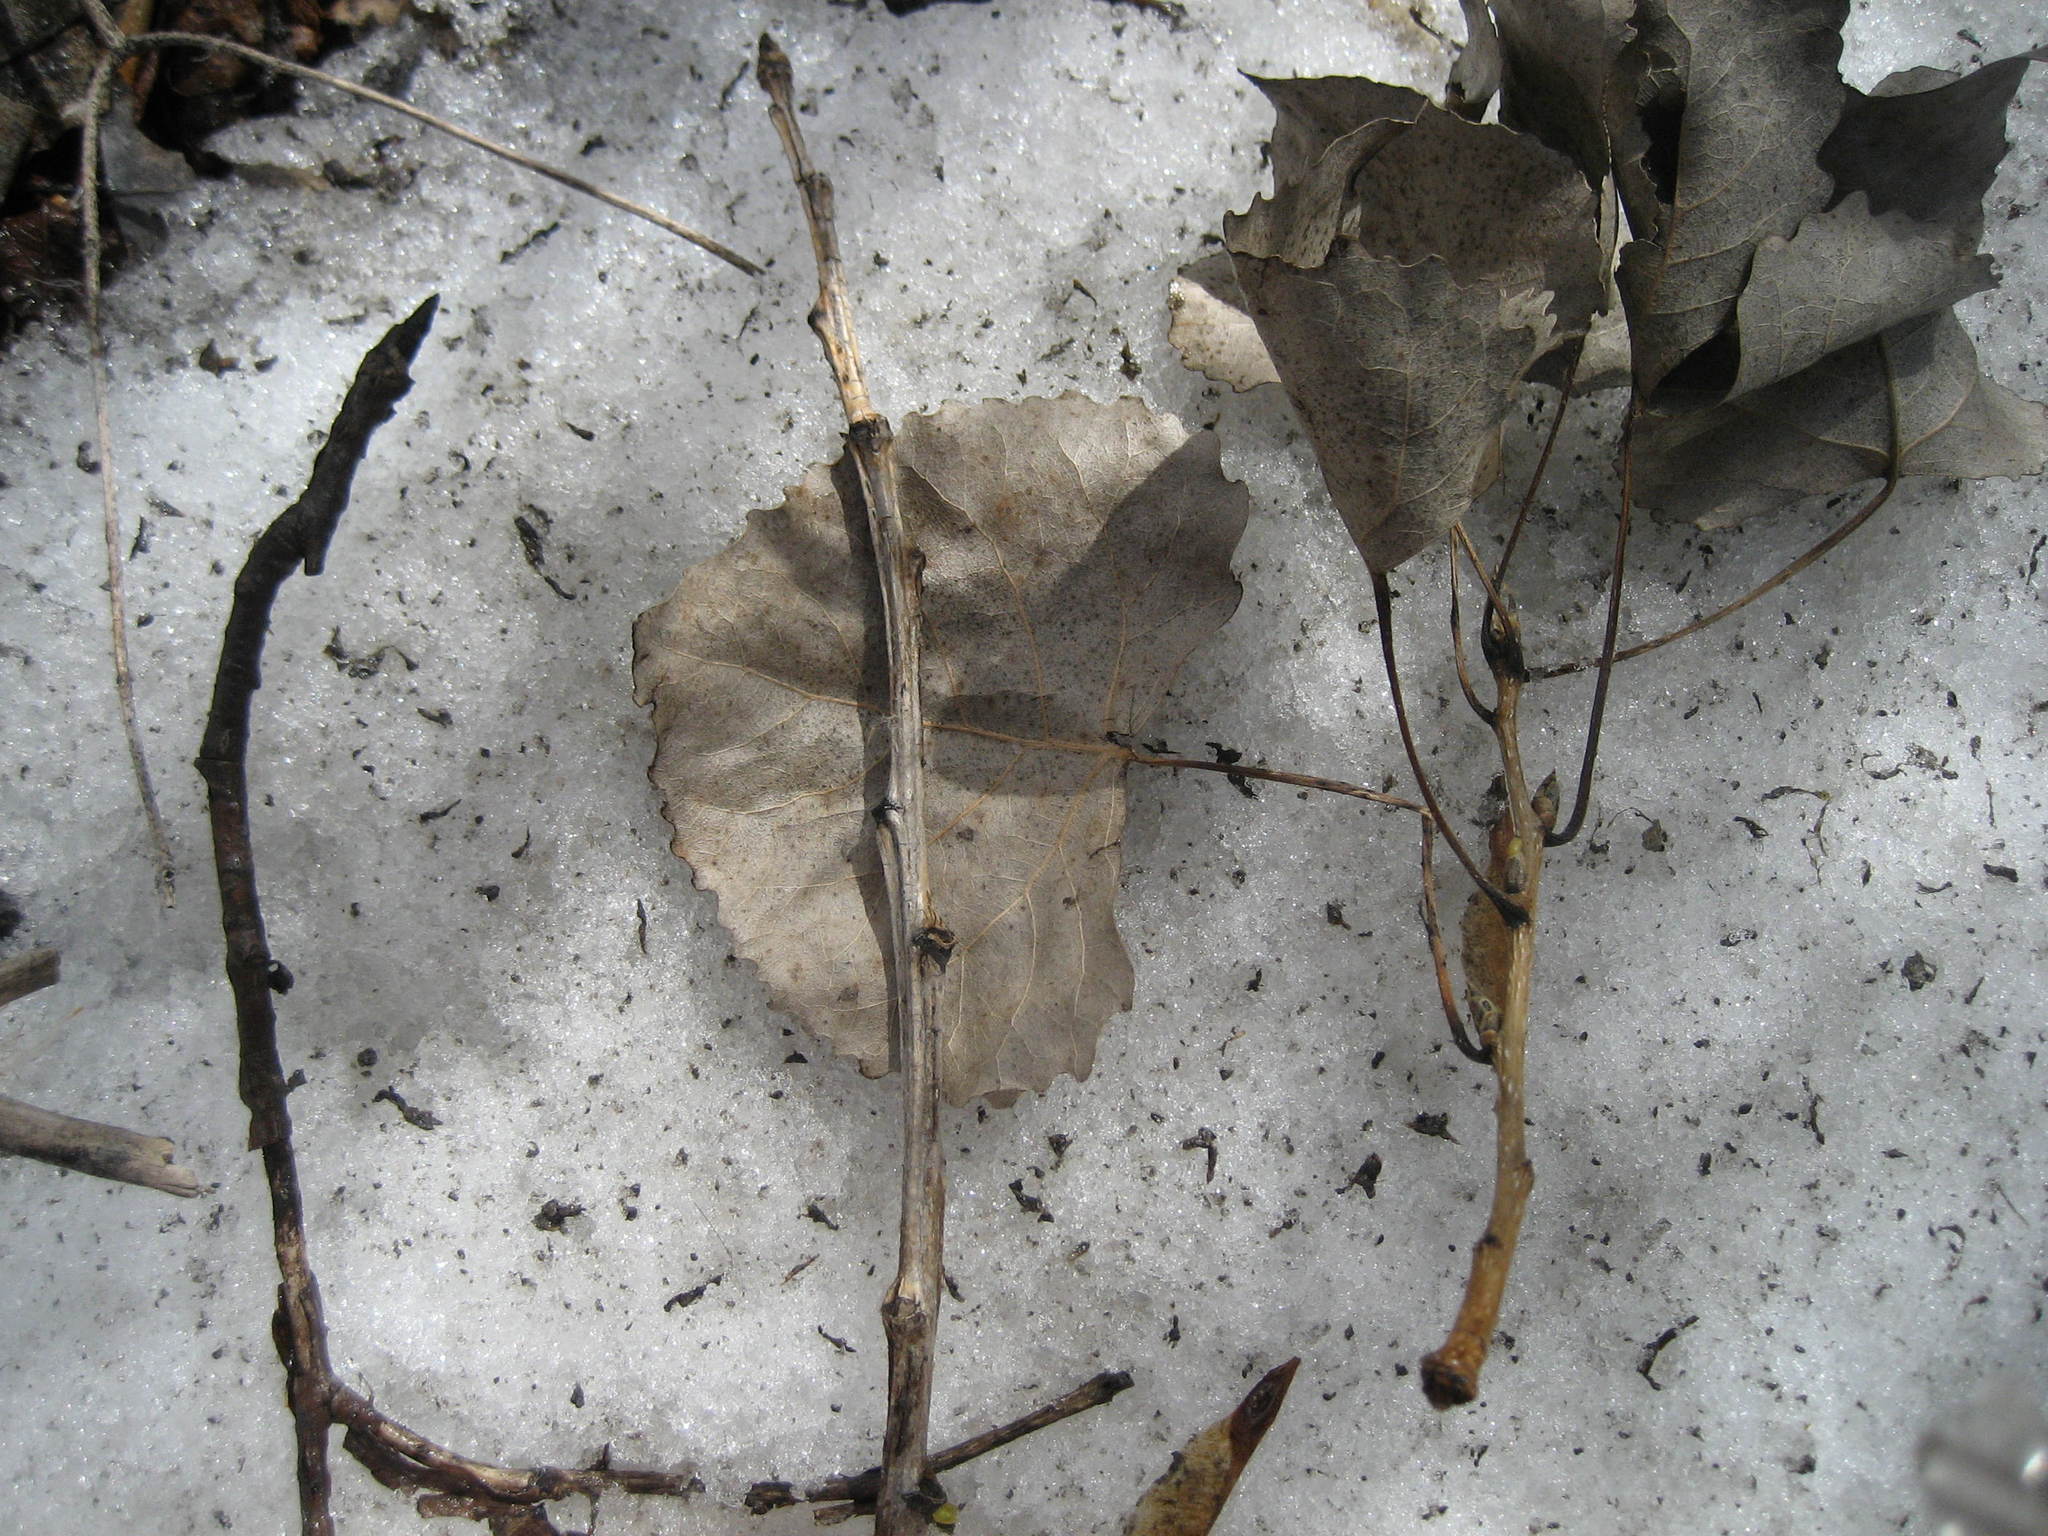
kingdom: Plantae
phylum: Tracheophyta
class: Magnoliopsida
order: Malpighiales
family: Salicaceae
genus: Populus
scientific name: Populus deltoides
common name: Eastern cottonwood
